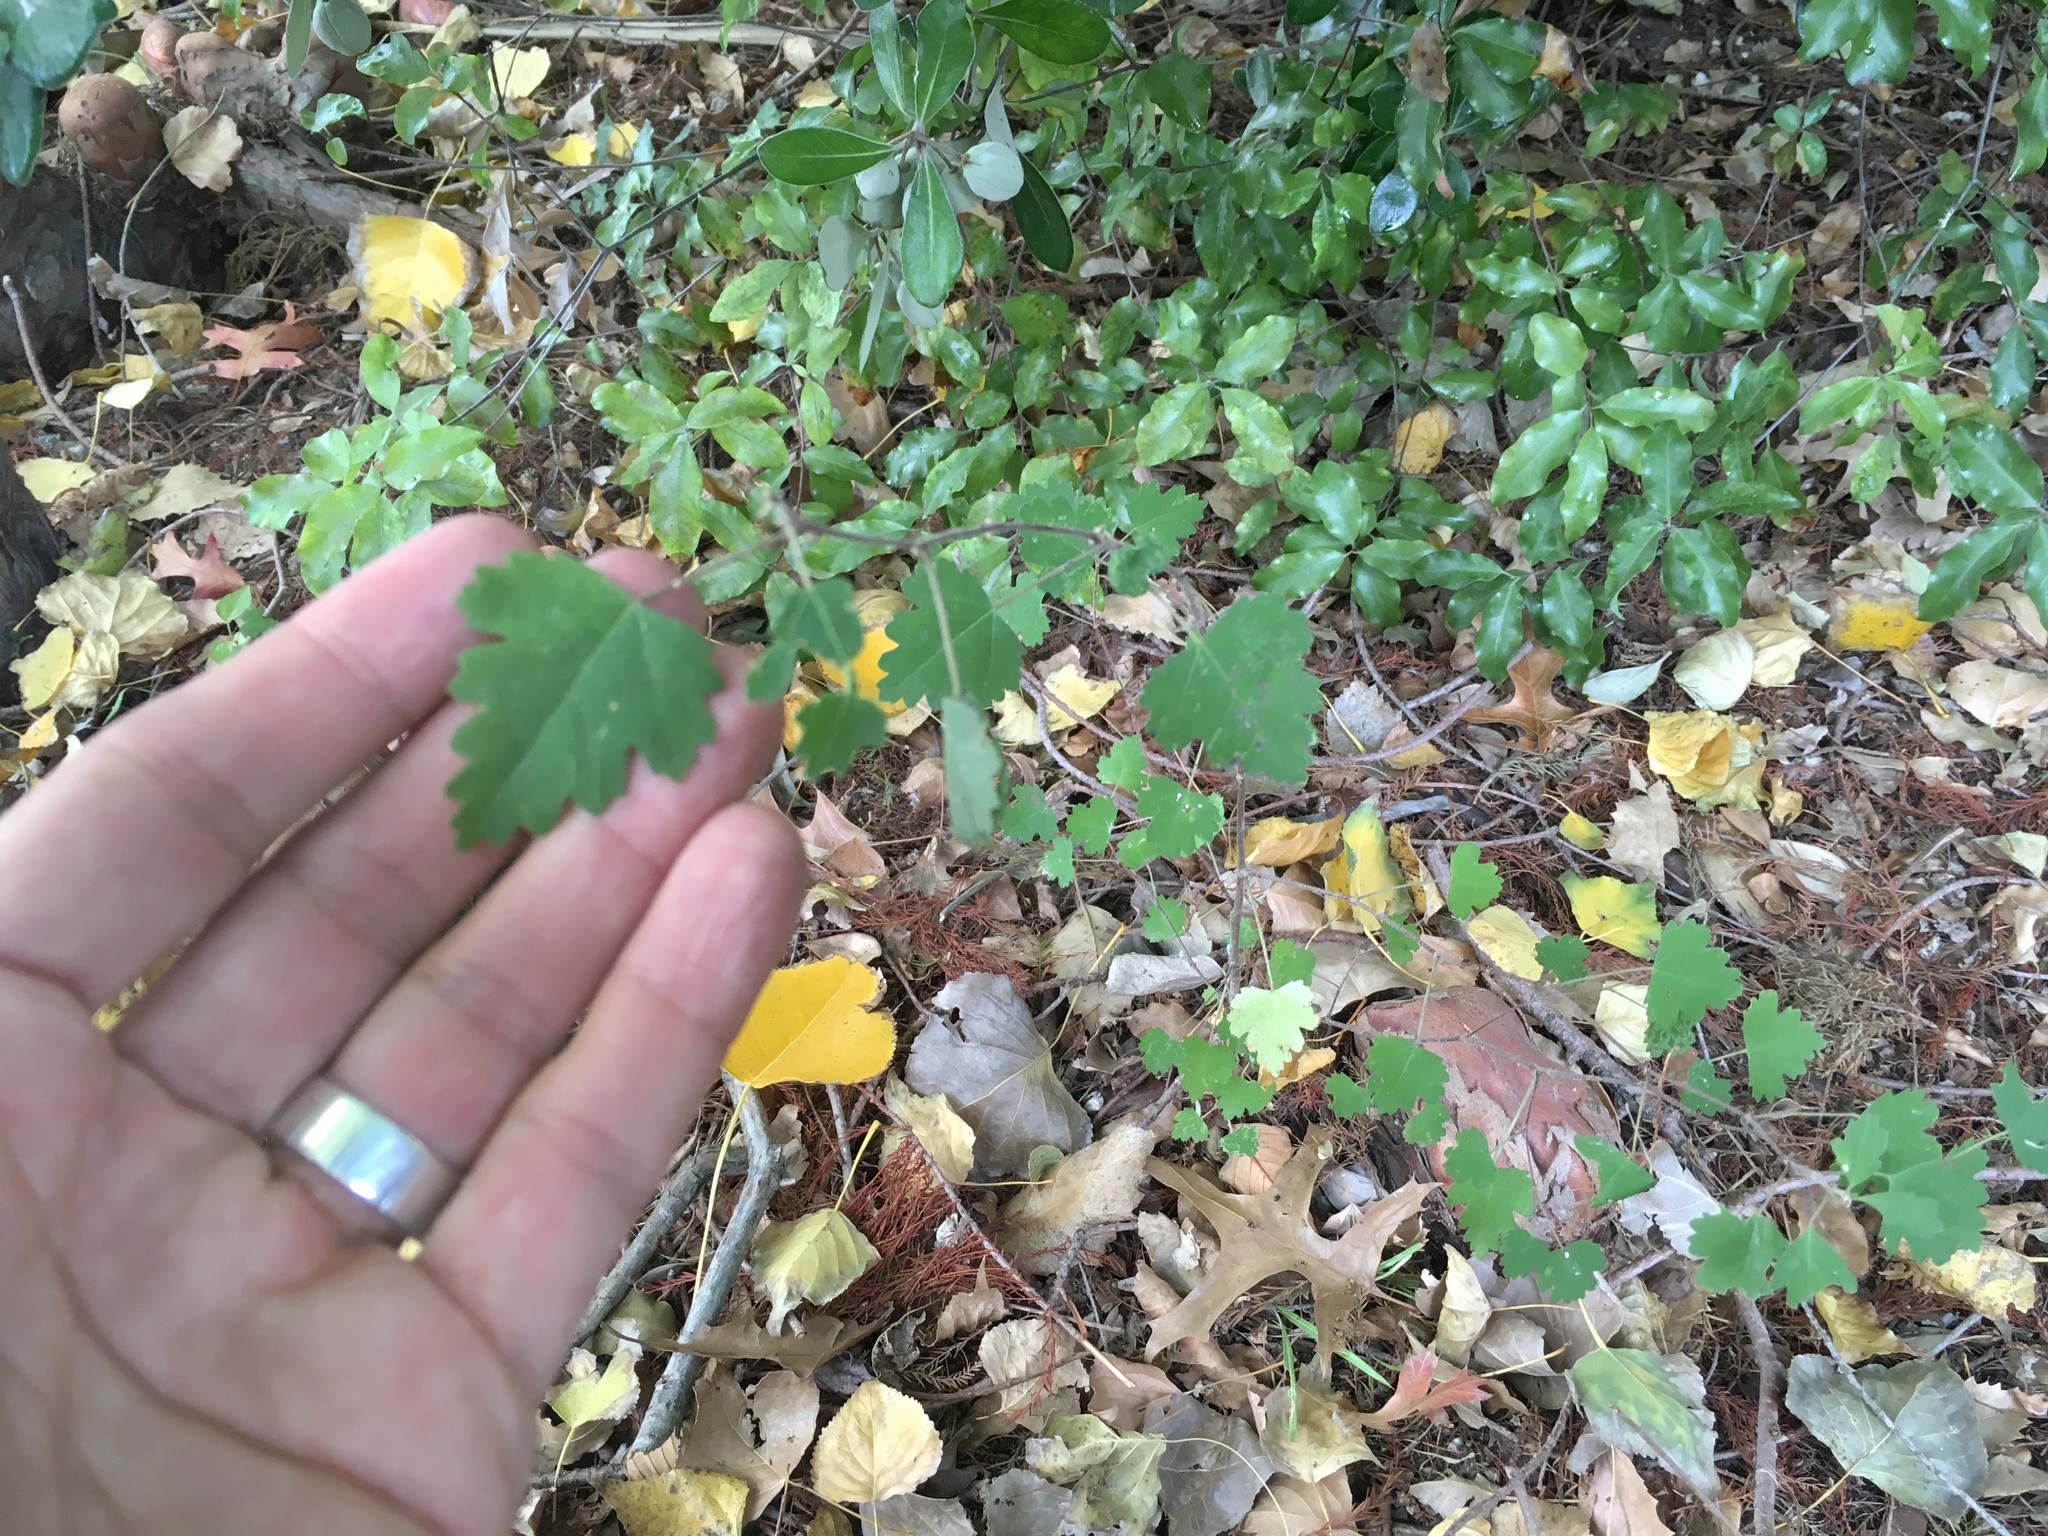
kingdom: Plantae
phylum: Tracheophyta
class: Magnoliopsida
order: Malvales
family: Malvaceae
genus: Plagianthus
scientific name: Plagianthus regius
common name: Manatu
